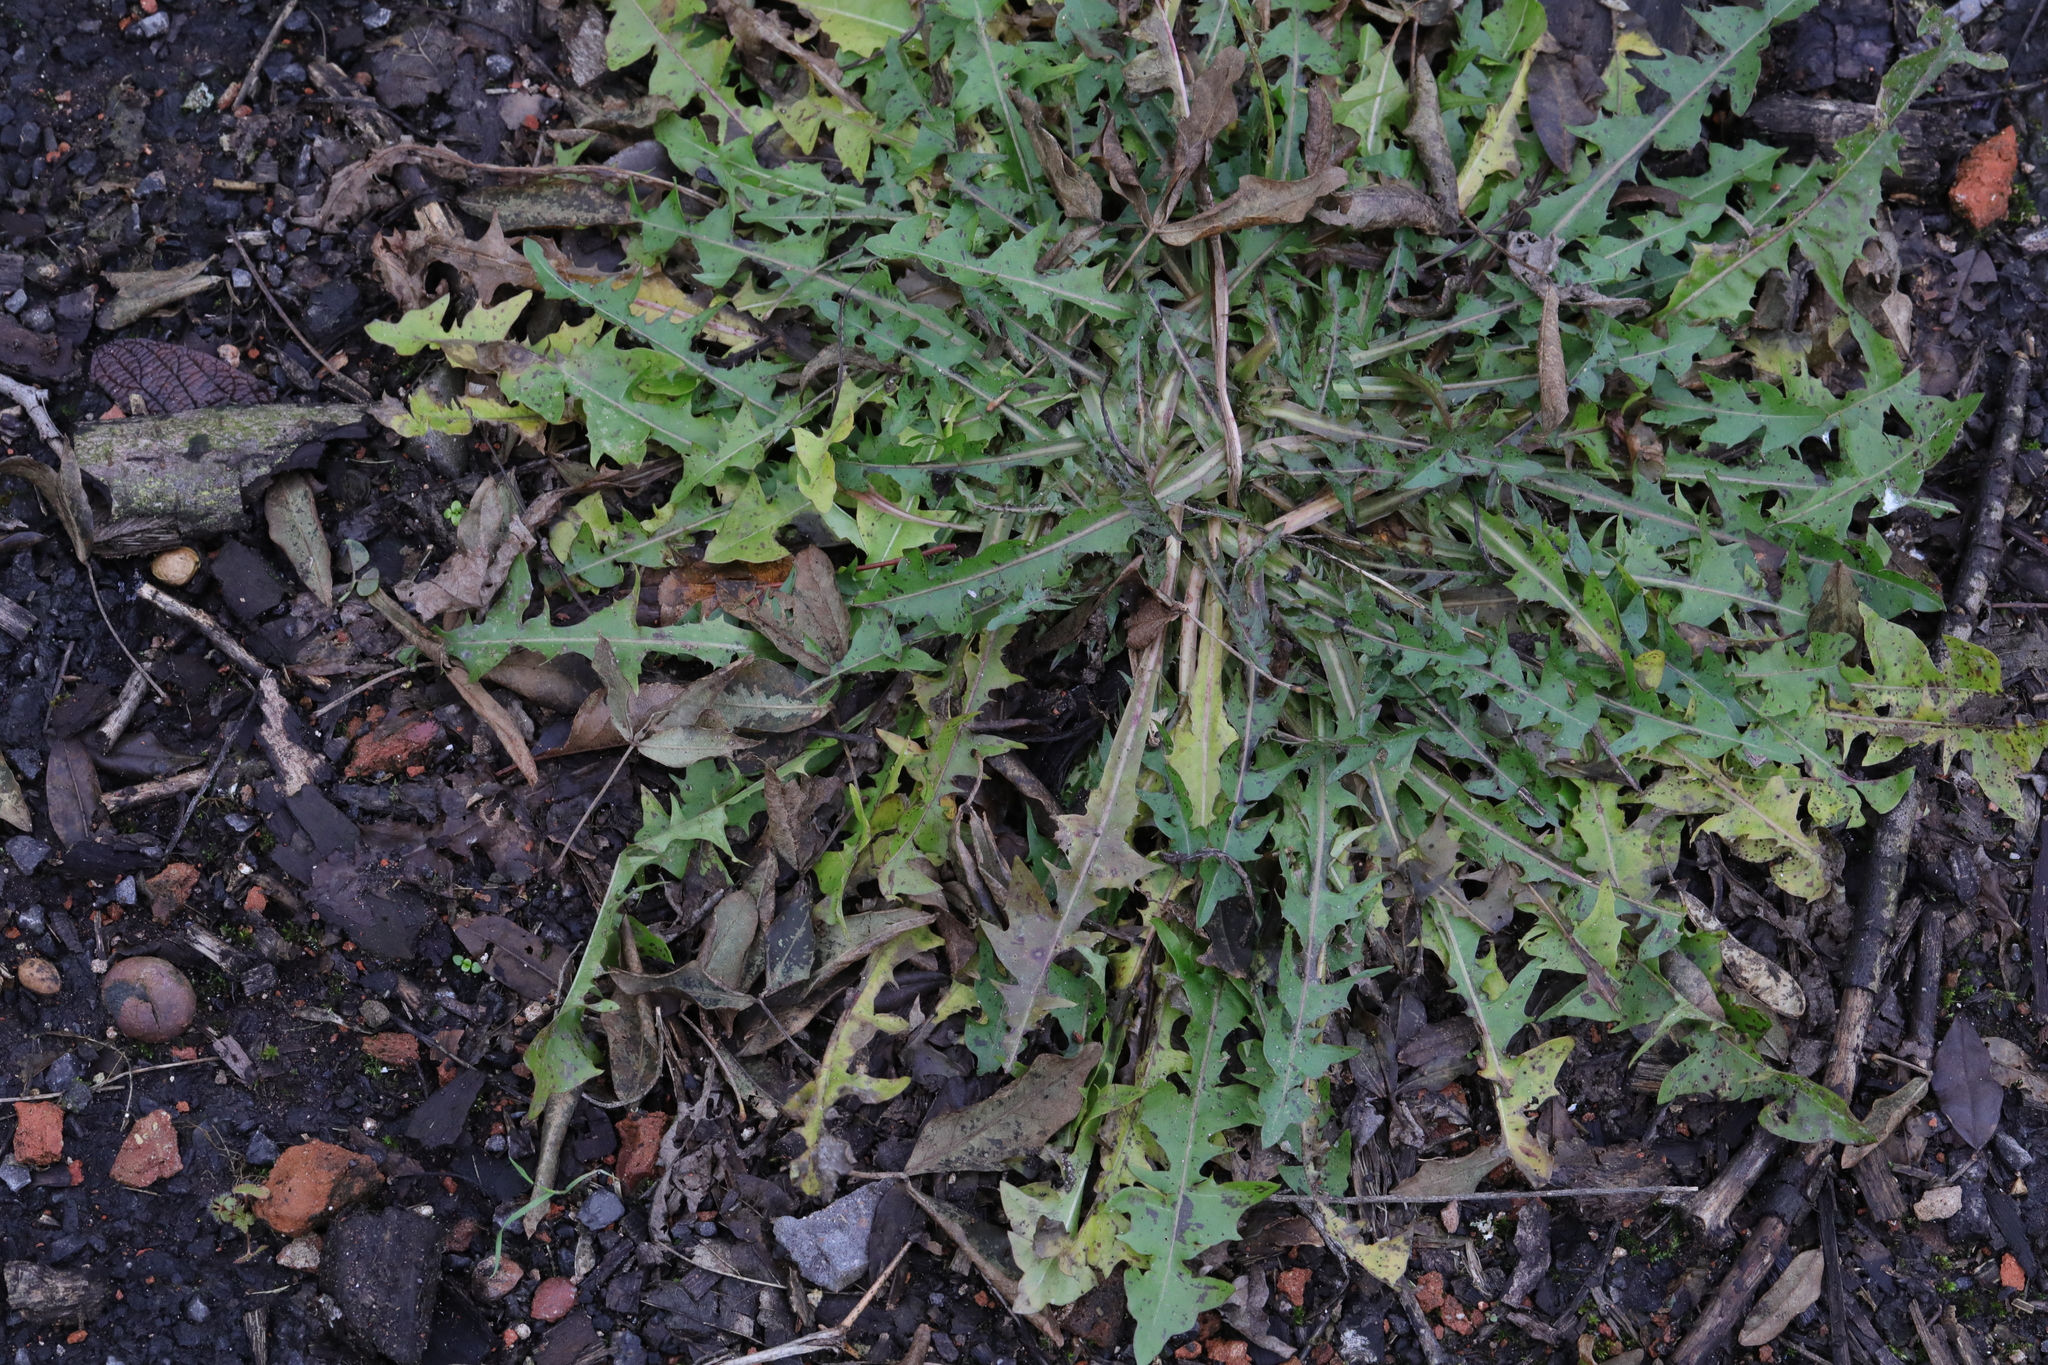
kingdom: Plantae
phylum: Tracheophyta
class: Magnoliopsida
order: Asterales
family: Asteraceae
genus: Taraxacum
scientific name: Taraxacum officinale
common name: Common dandelion
